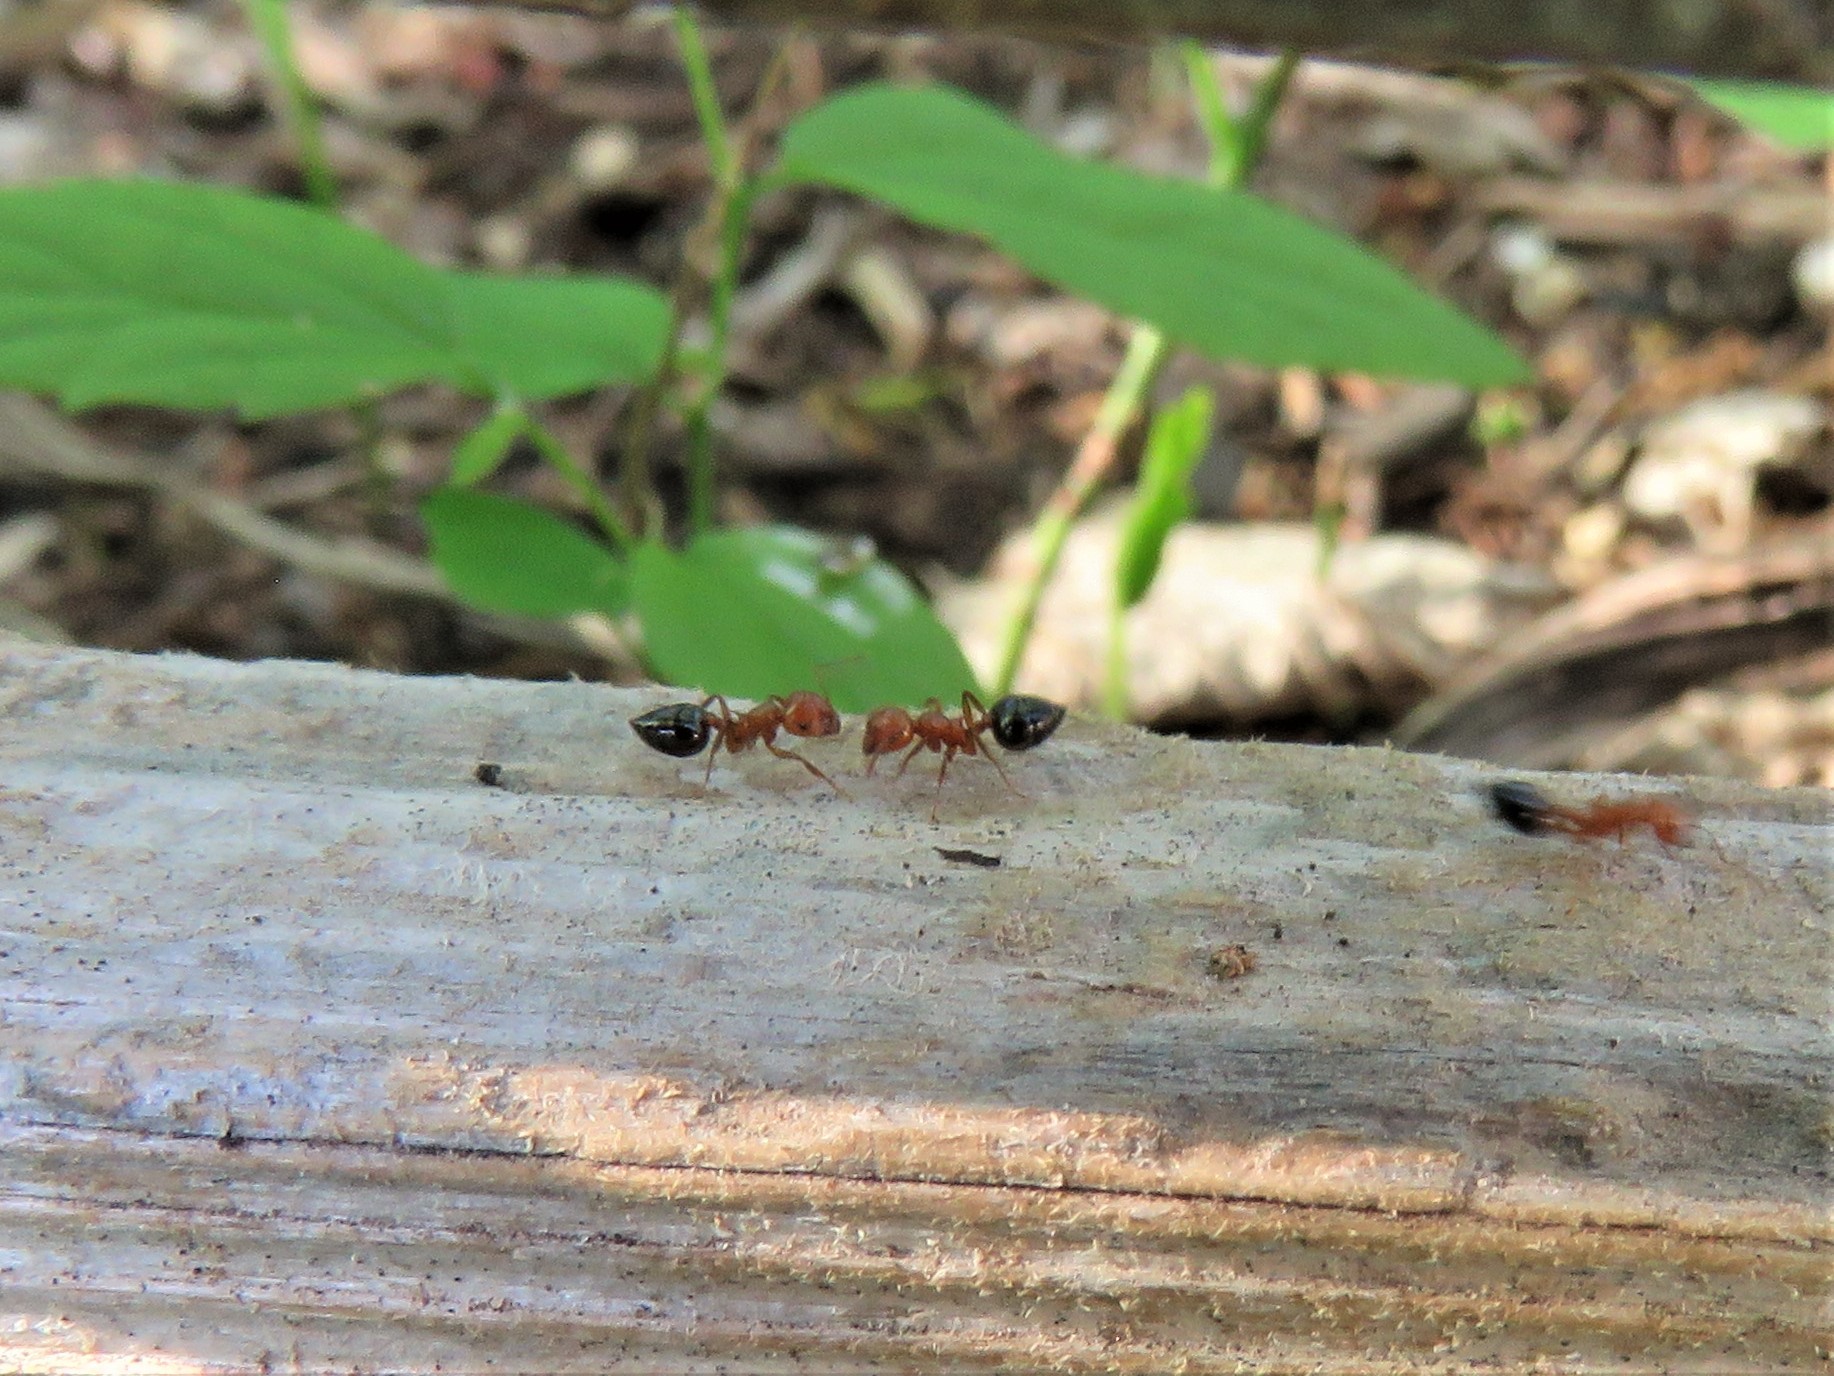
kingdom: Animalia
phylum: Arthropoda
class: Insecta
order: Hymenoptera
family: Formicidae
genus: Crematogaster
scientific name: Crematogaster laeviuscula
